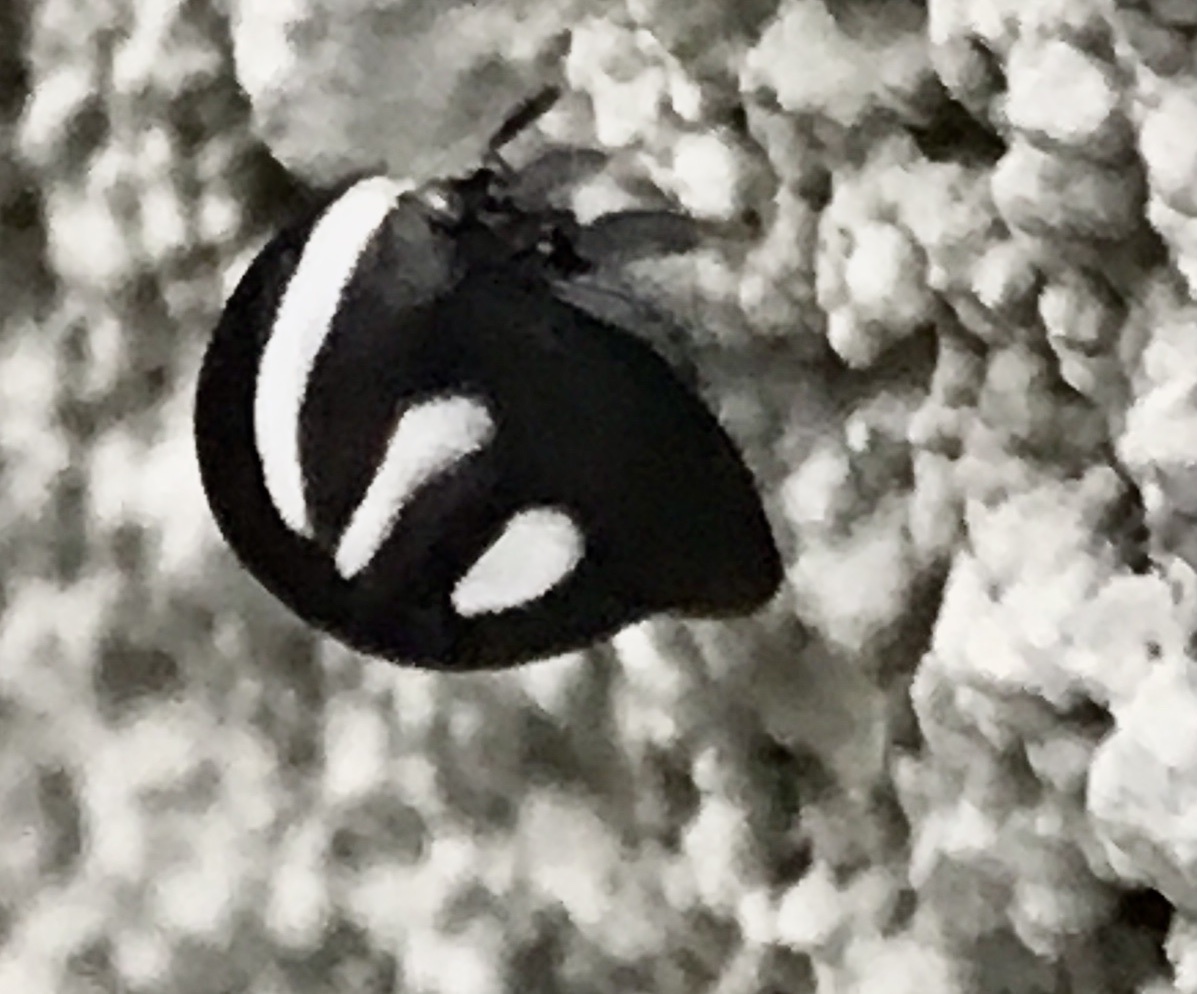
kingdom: Animalia
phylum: Arthropoda
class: Insecta
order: Hemiptera
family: Membracidae
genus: Membracis
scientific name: Membracis
